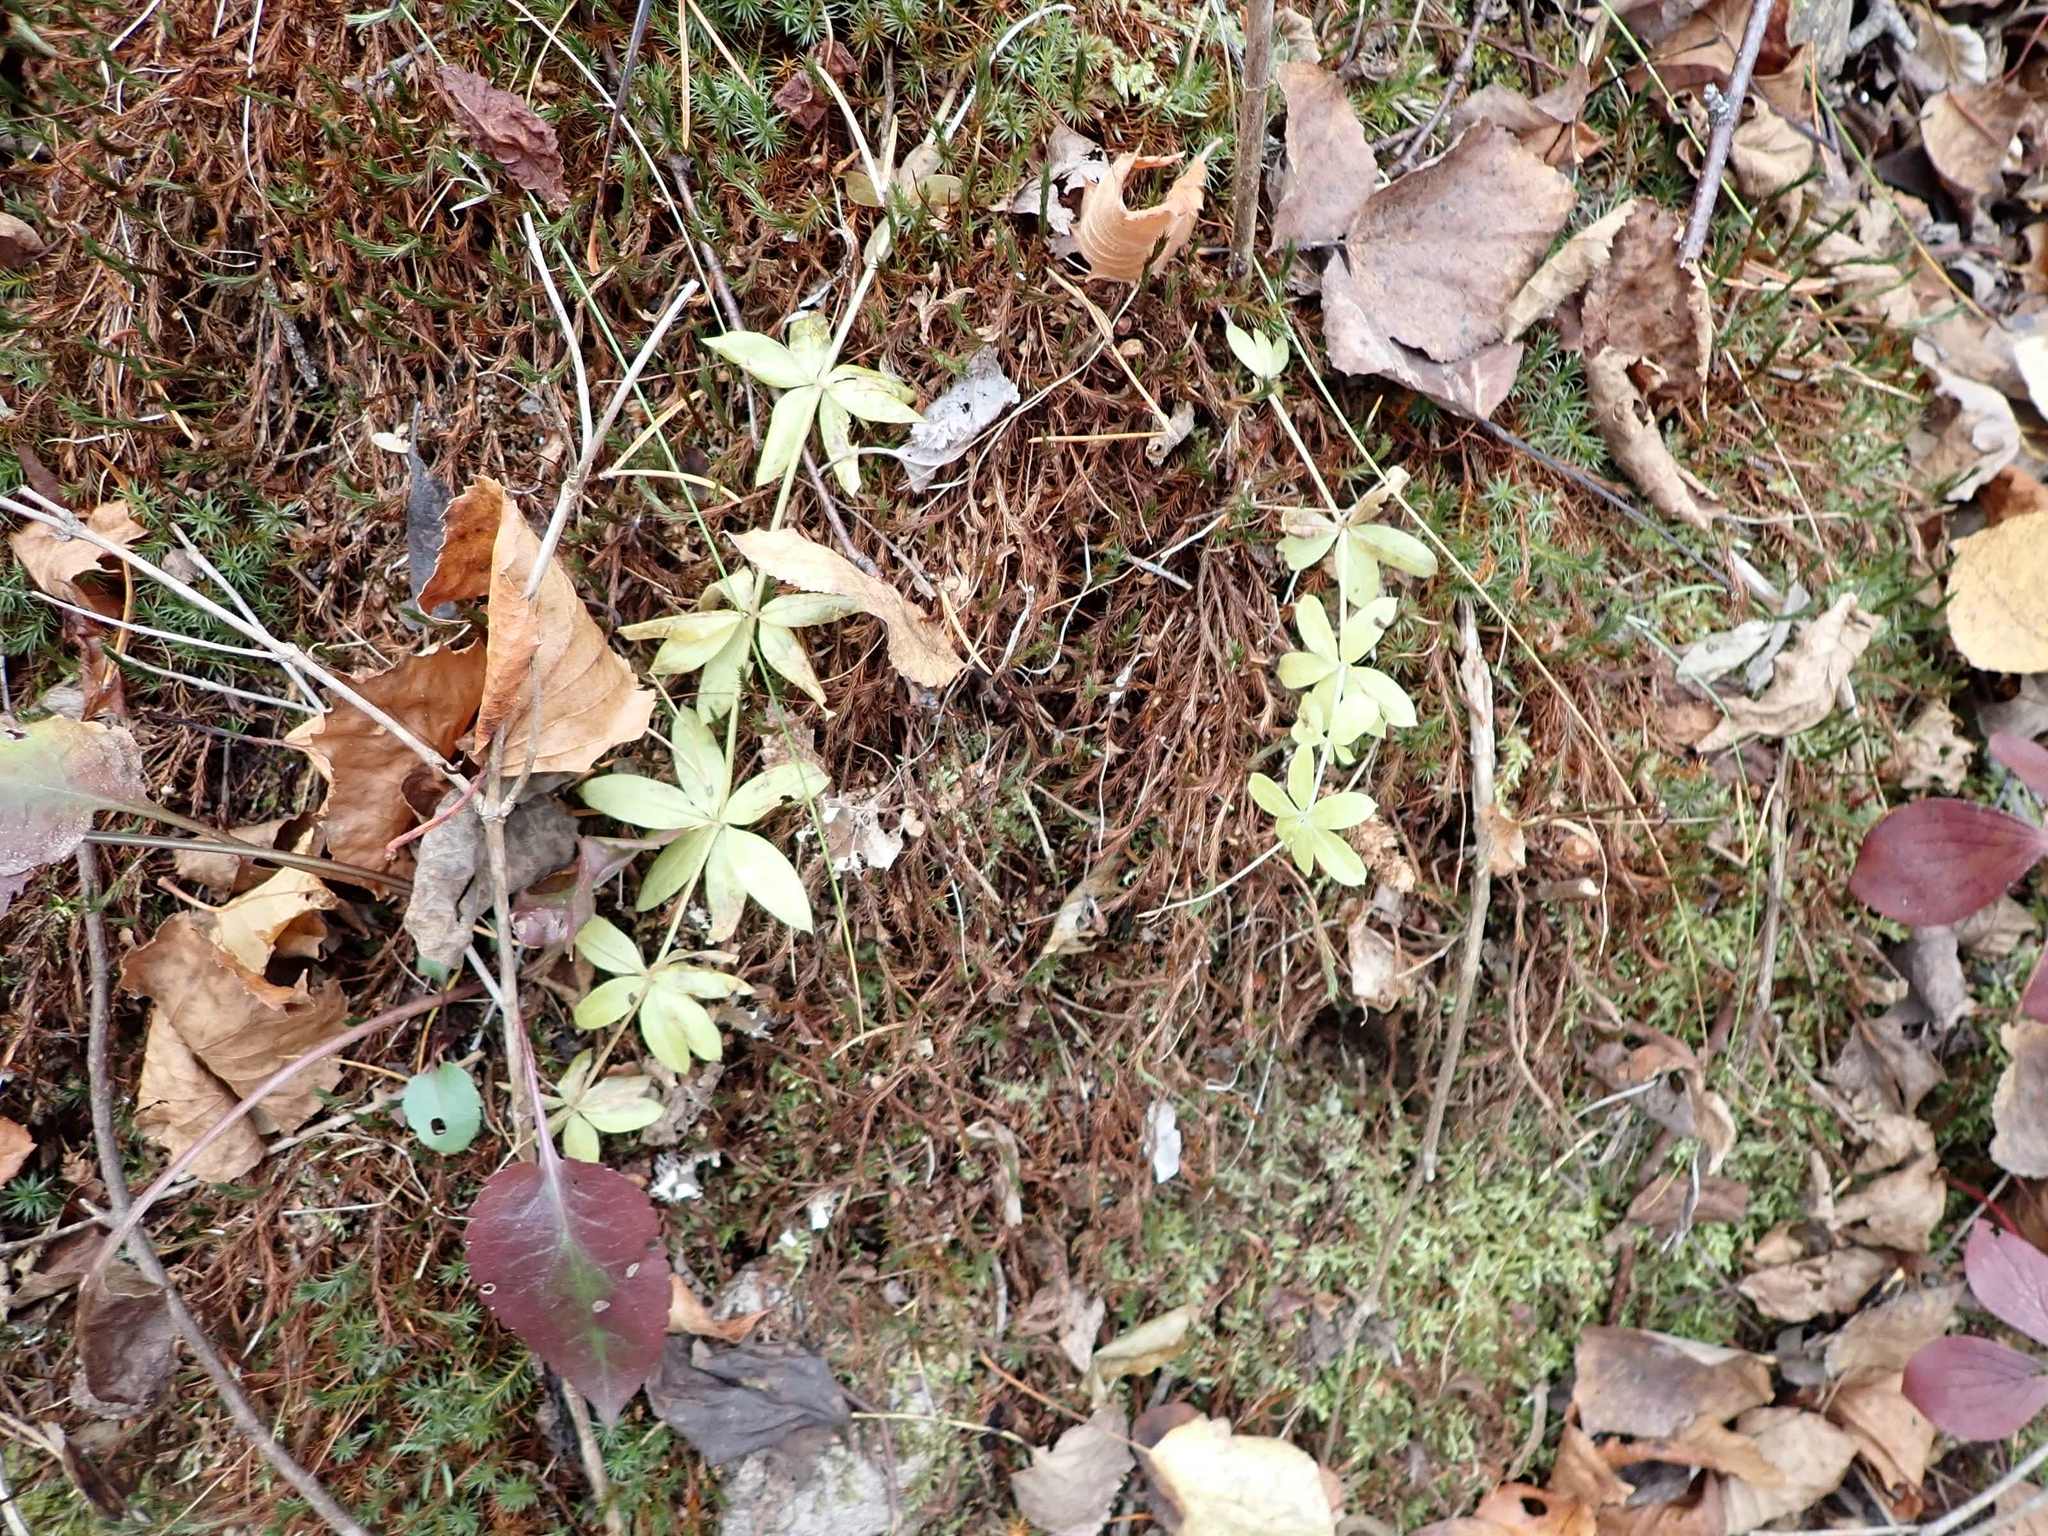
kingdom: Plantae
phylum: Tracheophyta
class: Magnoliopsida
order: Gentianales
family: Rubiaceae
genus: Galium
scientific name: Galium triflorum
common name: Fragrant bedstraw
